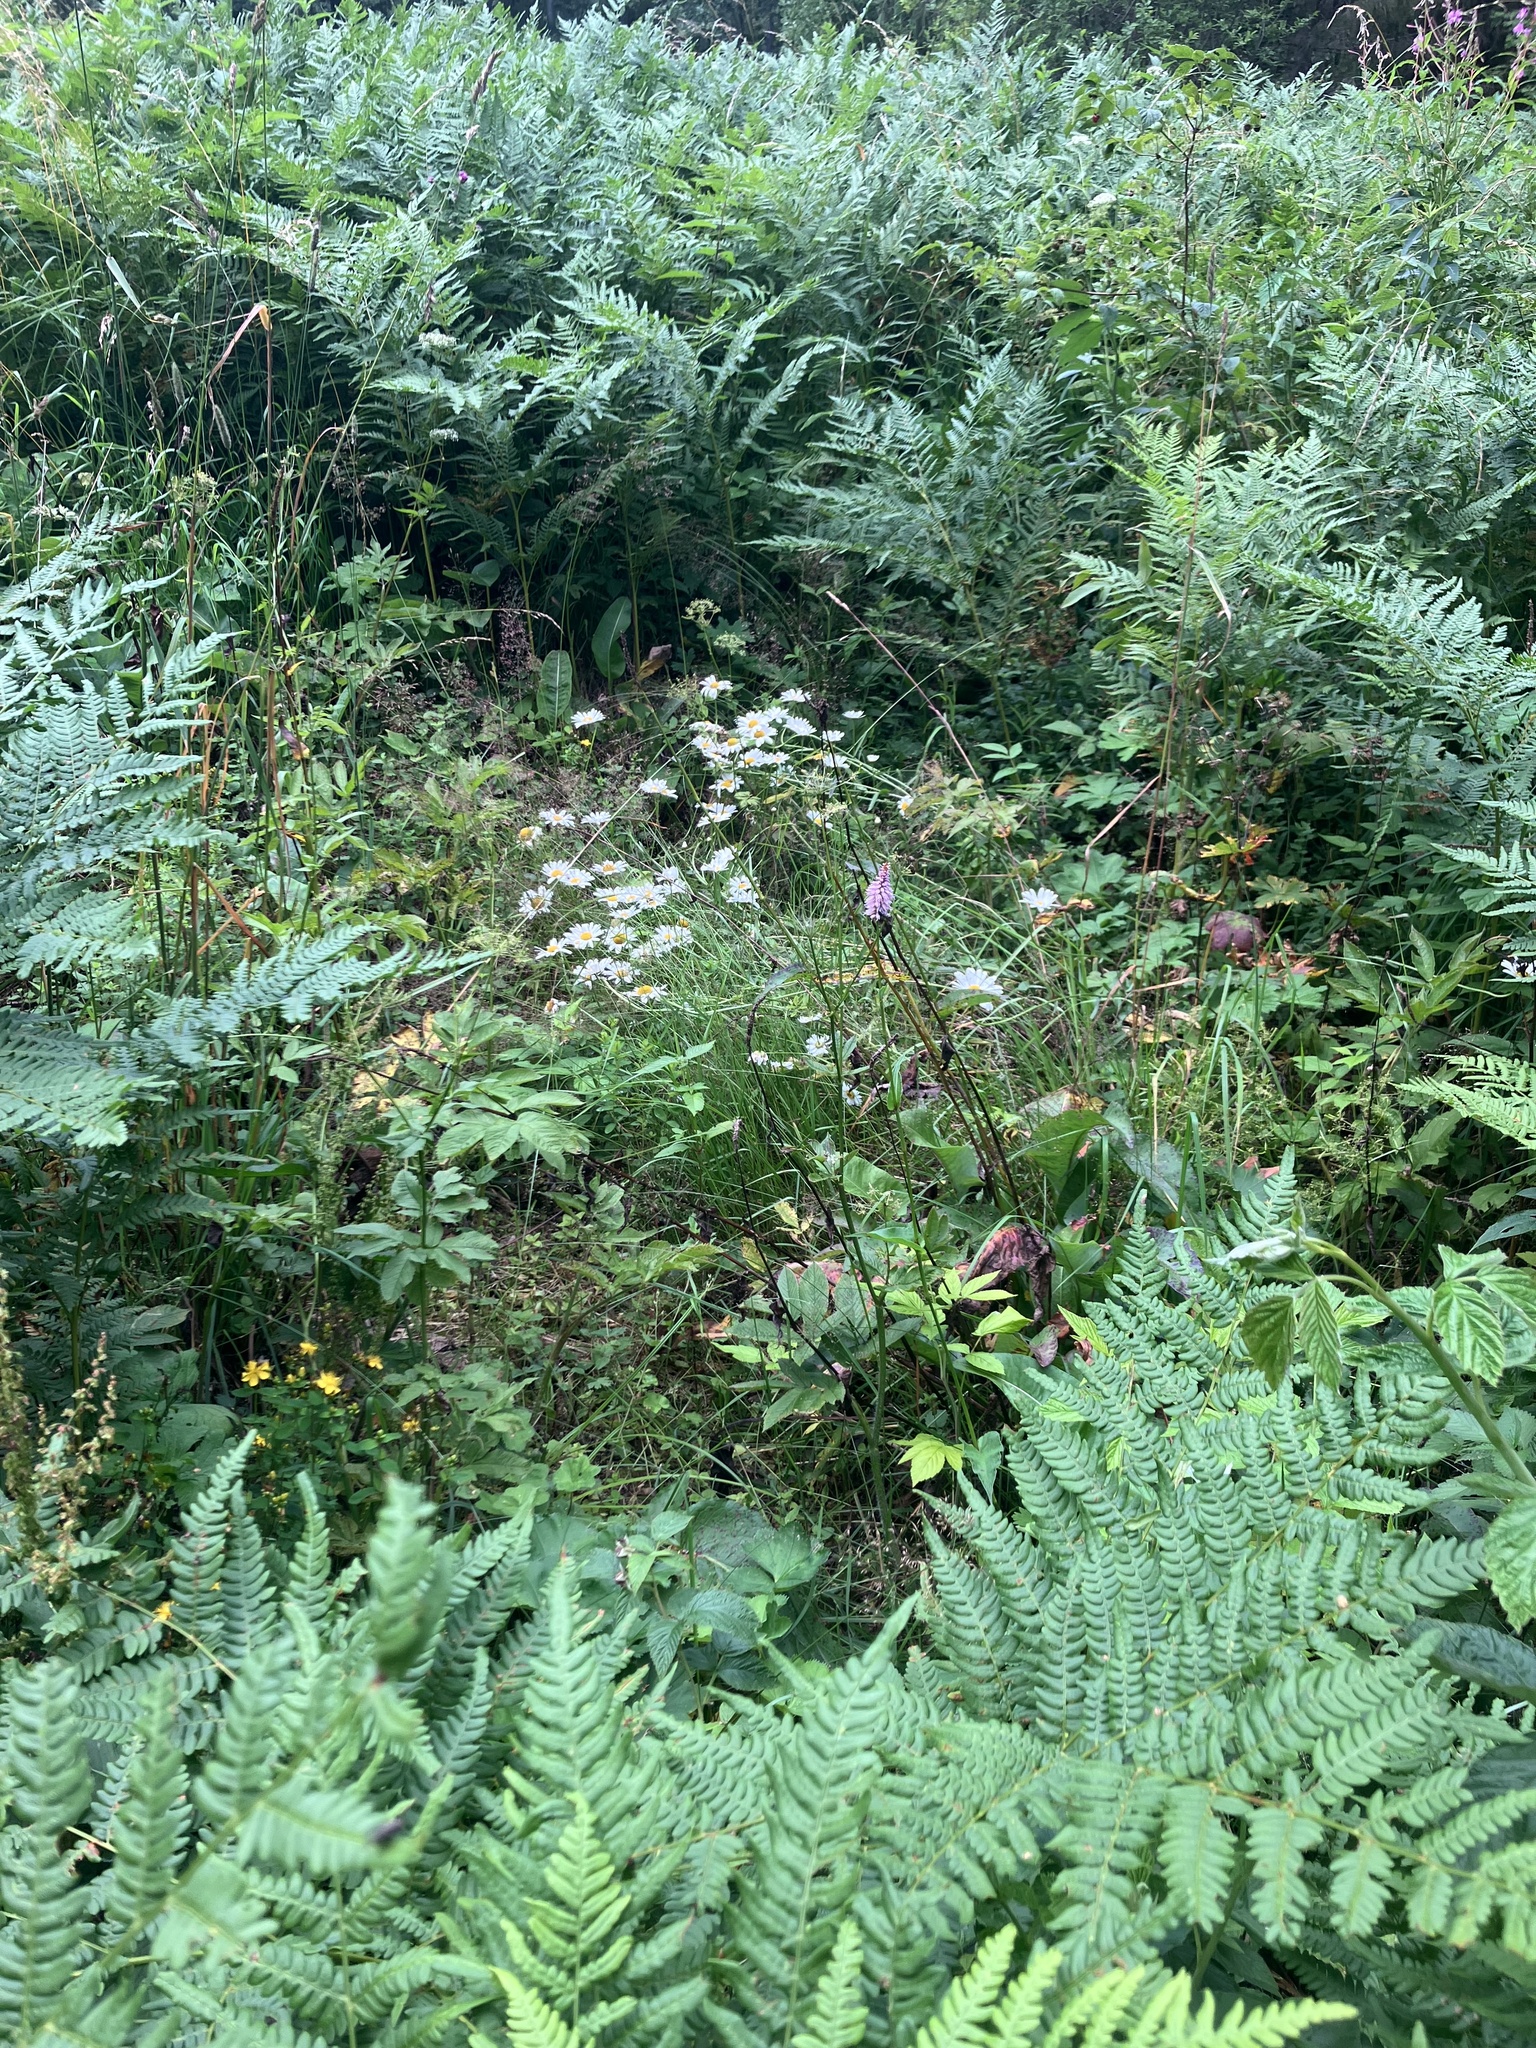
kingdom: Fungi
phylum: Basidiomycota
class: Dacrymycetes
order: Dacrymycetales
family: Dacrymycetaceae
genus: Calocera
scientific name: Calocera viscosa
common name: Yellow stagshorn
